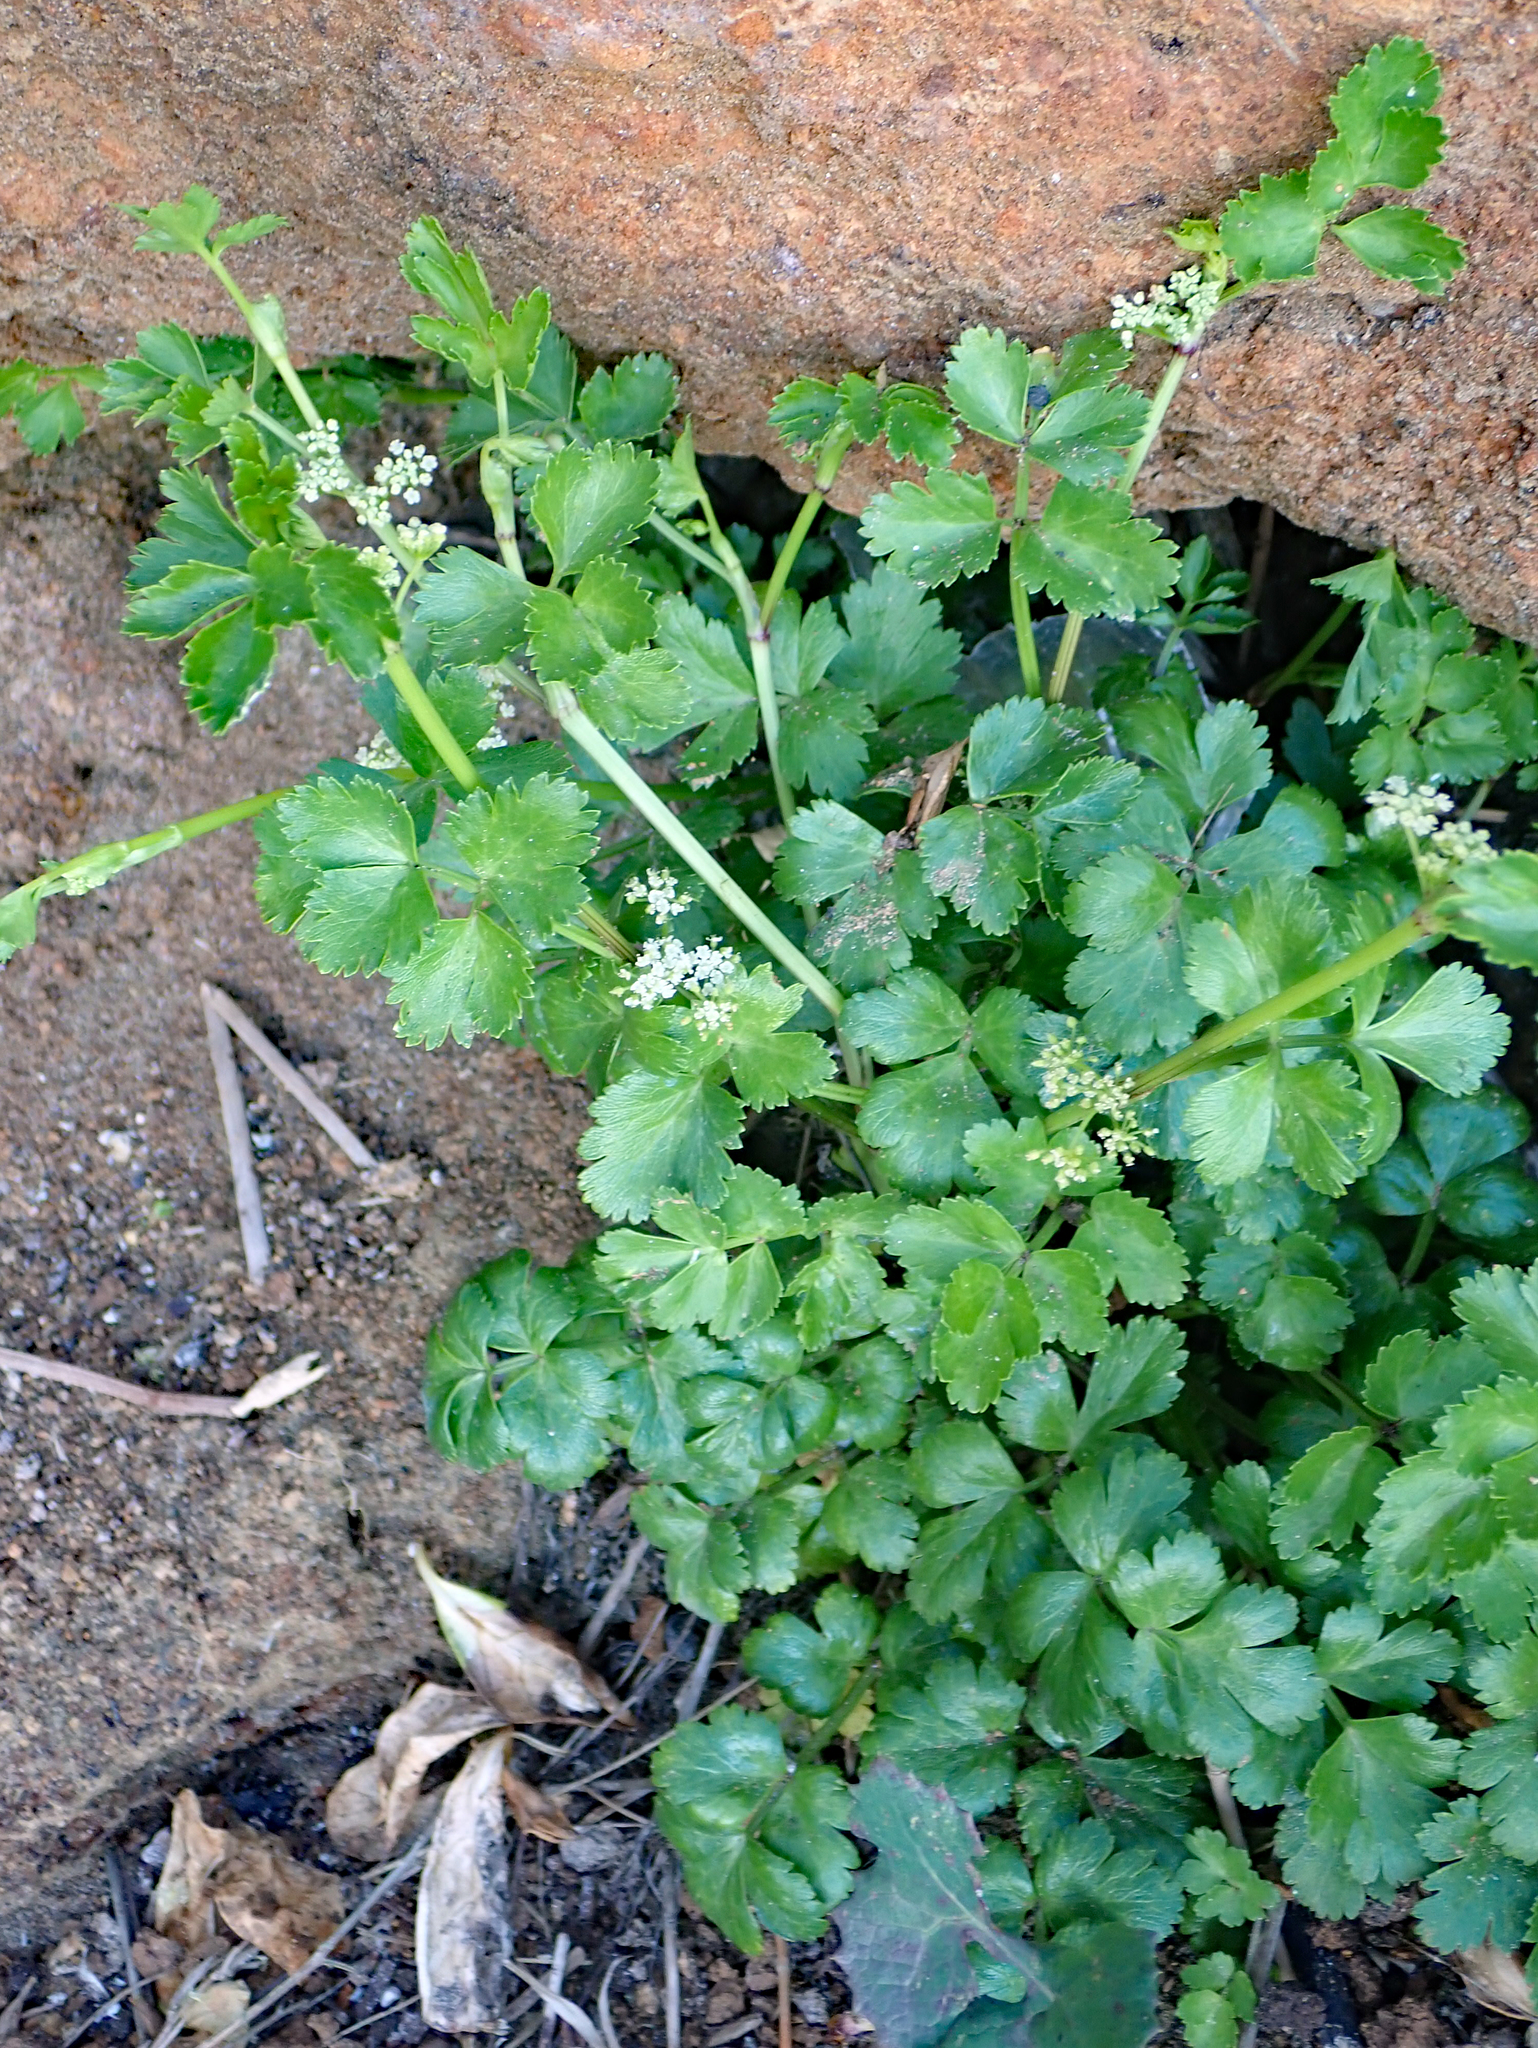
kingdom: Plantae
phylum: Tracheophyta
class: Magnoliopsida
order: Apiales
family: Apiaceae
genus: Apium
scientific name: Apium prostratum
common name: Prostrate marshwort
